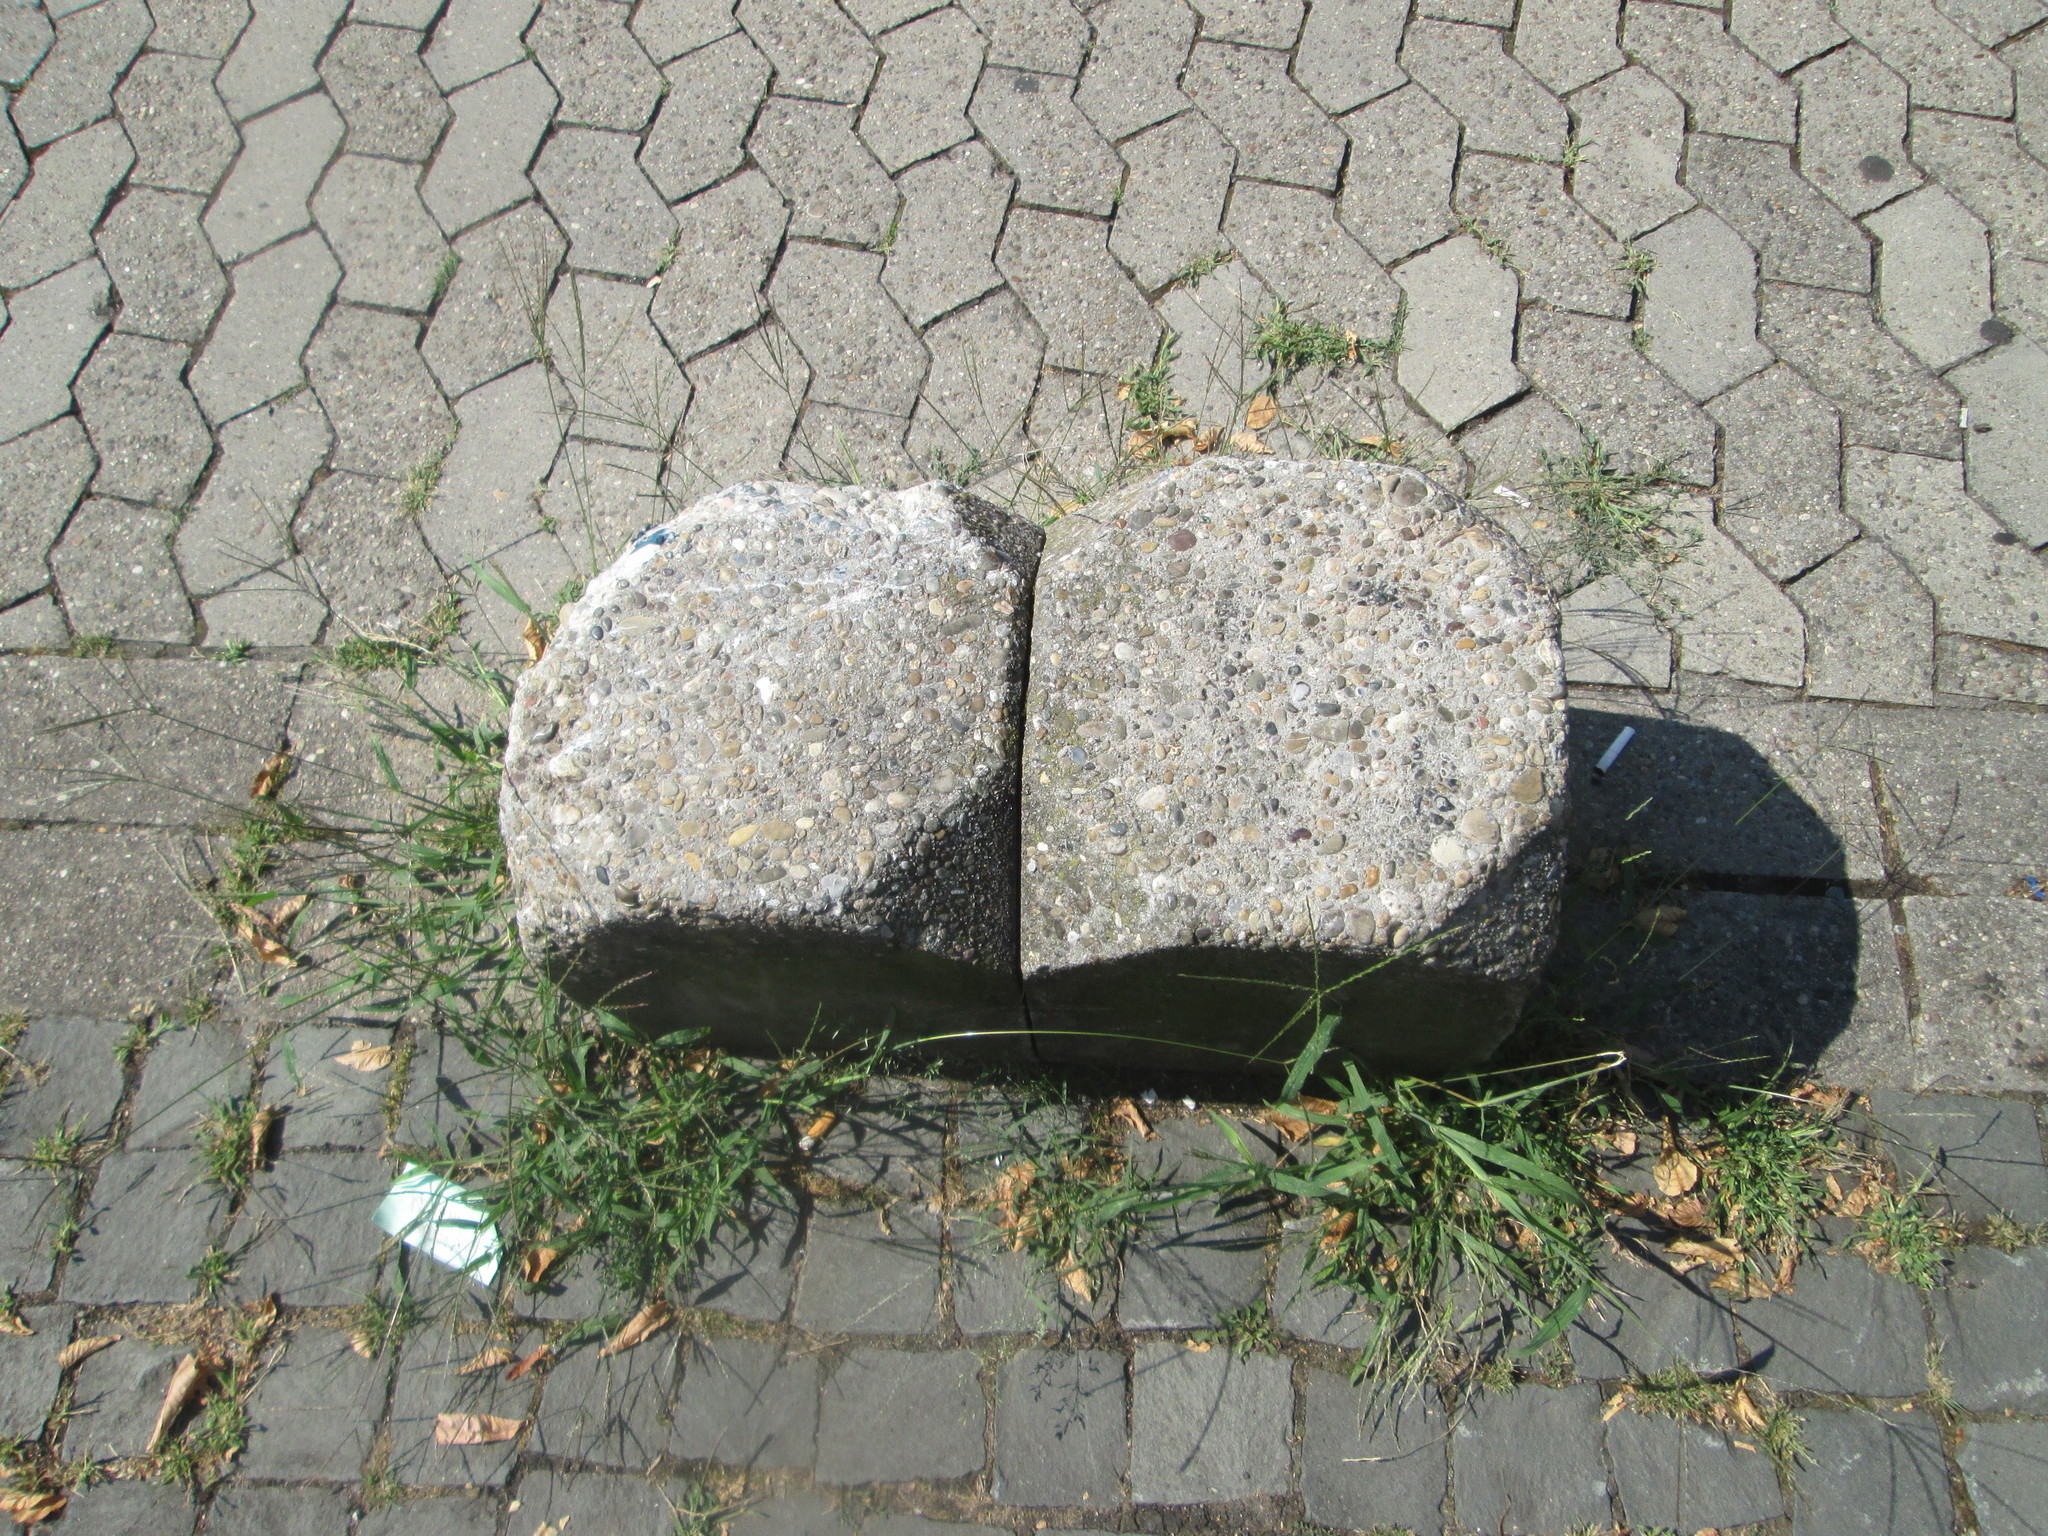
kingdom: Plantae
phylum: Tracheophyta
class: Liliopsida
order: Poales
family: Poaceae
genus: Digitaria
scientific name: Digitaria sanguinalis
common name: Hairy crabgrass
